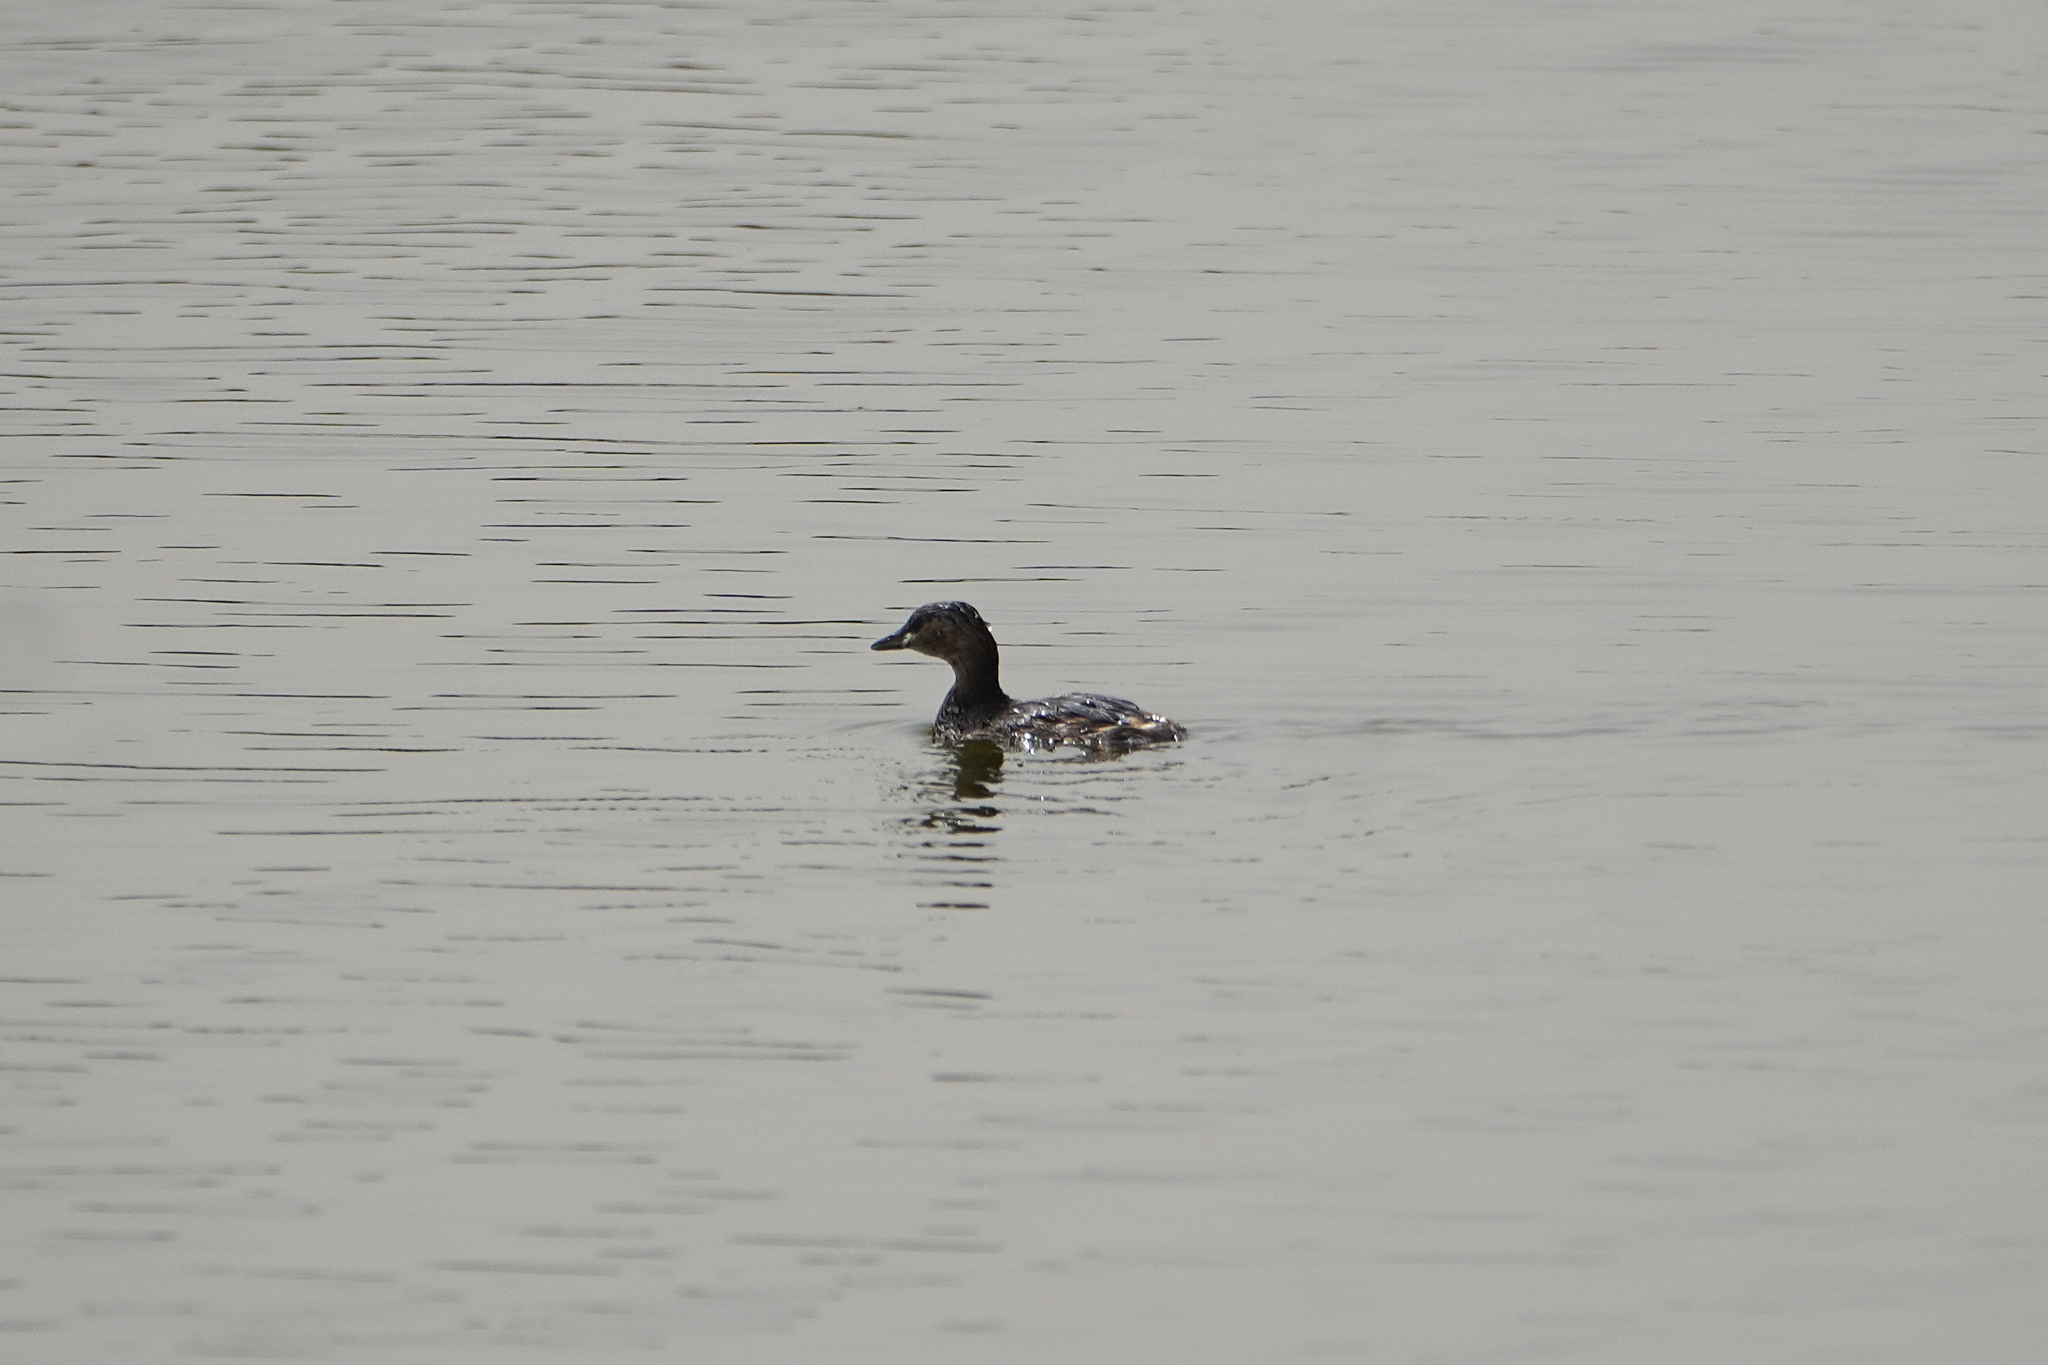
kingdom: Animalia
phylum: Chordata
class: Aves
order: Podicipediformes
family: Podicipedidae
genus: Tachybaptus
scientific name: Tachybaptus ruficollis
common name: Little grebe
